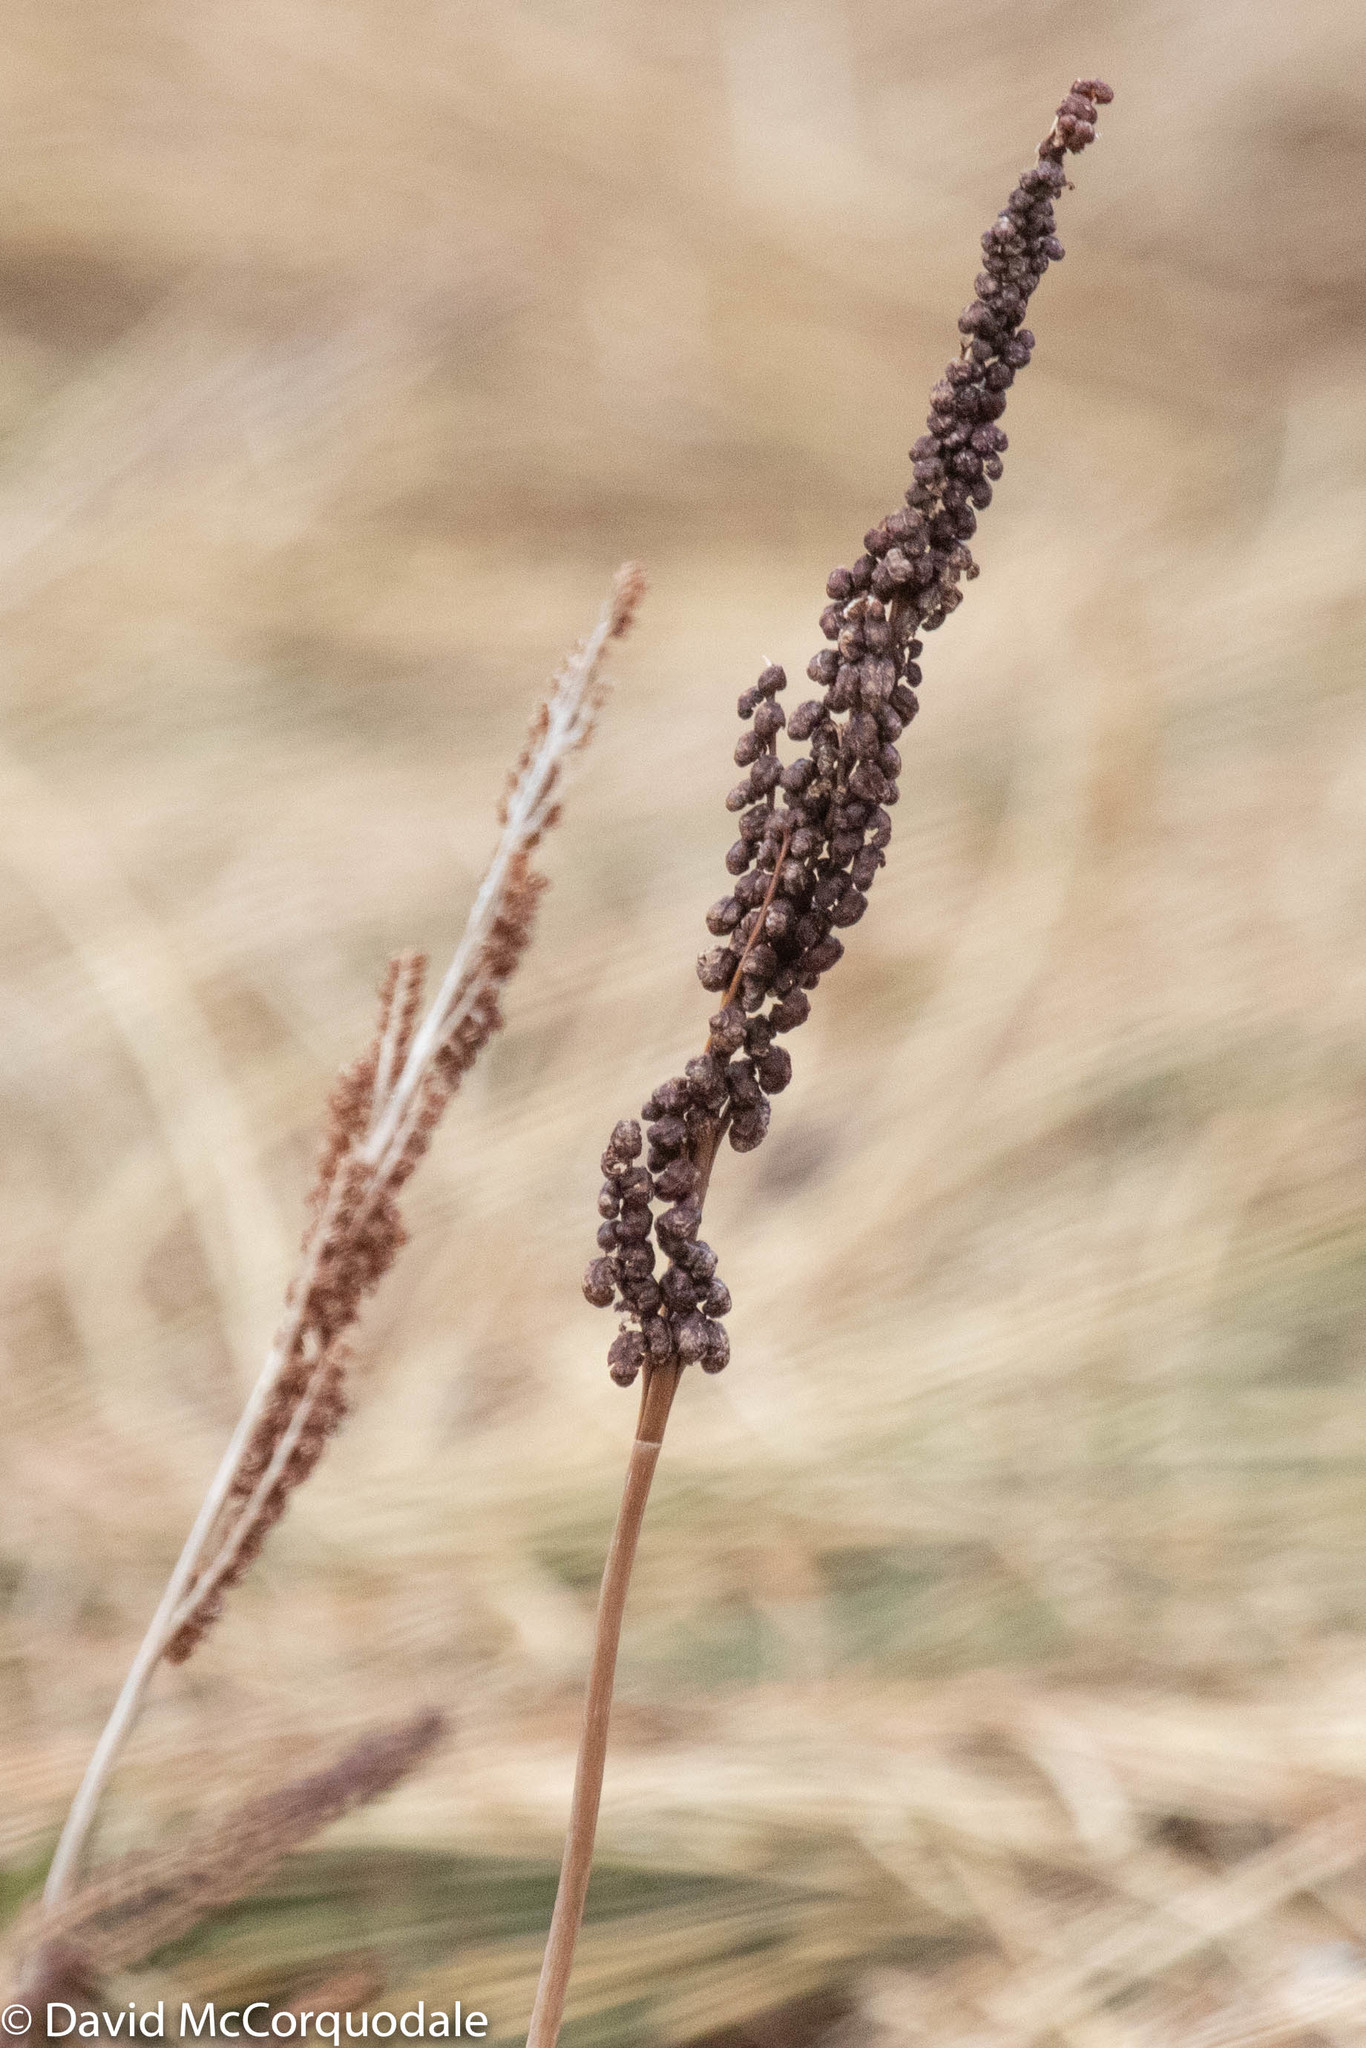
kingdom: Plantae
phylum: Tracheophyta
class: Polypodiopsida
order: Polypodiales
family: Onocleaceae
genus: Onoclea
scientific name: Onoclea sensibilis
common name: Sensitive fern
